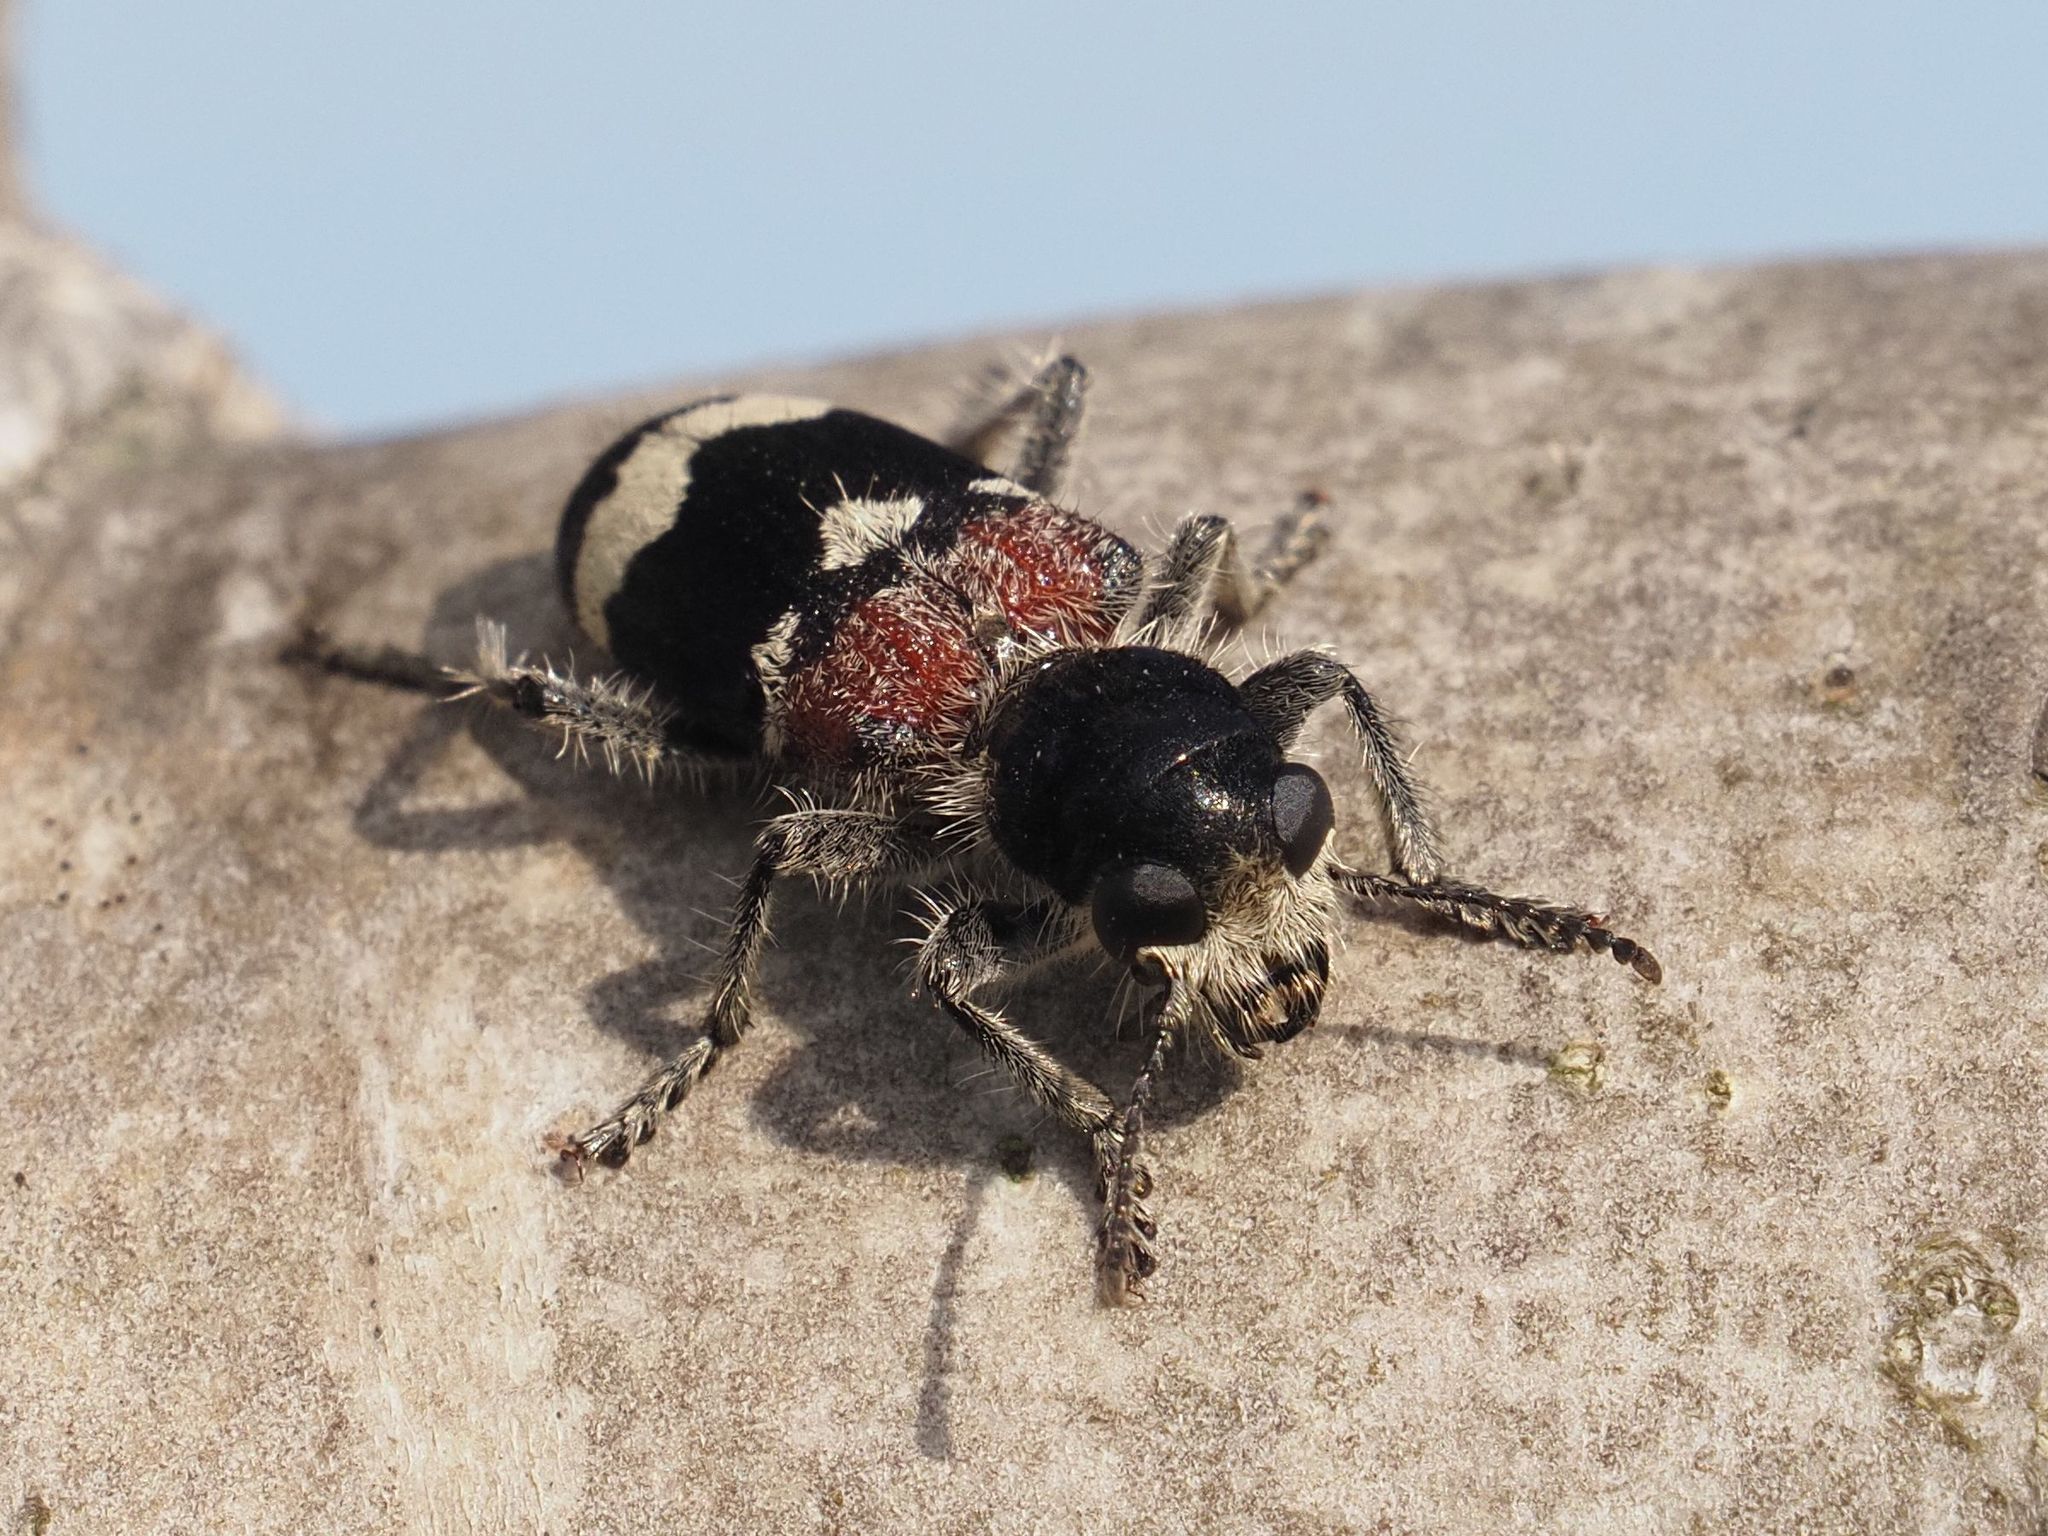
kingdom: Animalia
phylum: Arthropoda
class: Insecta
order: Coleoptera
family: Cleridae
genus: Clerus
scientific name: Clerus mutillarius
